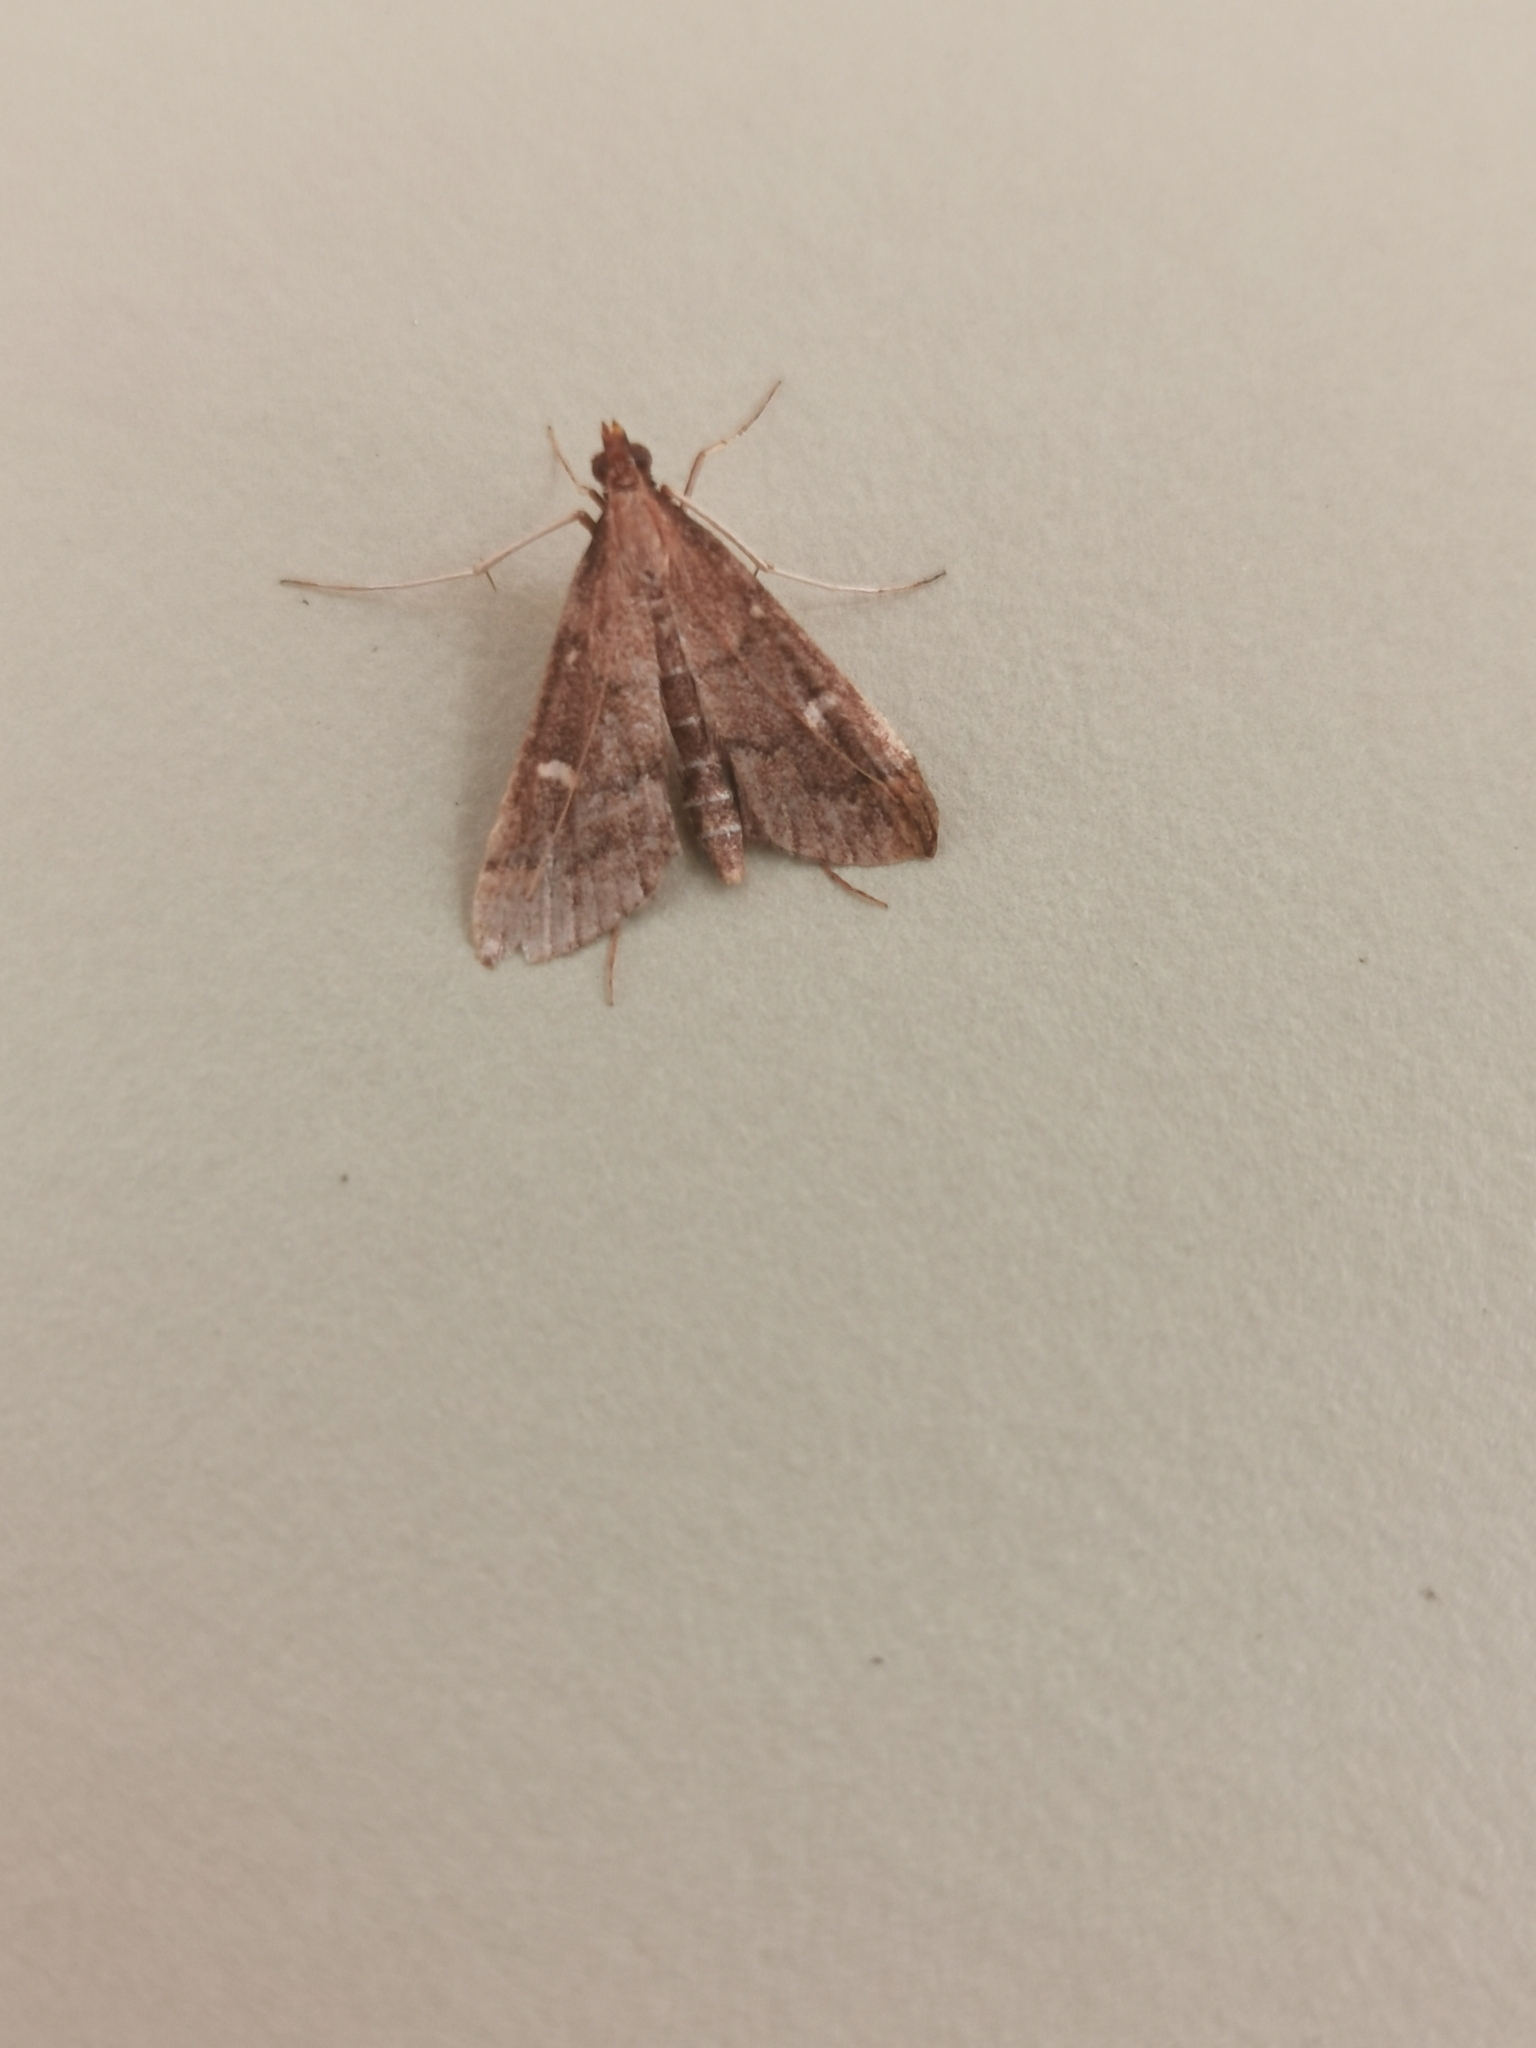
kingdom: Animalia
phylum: Arthropoda
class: Insecta
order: Lepidoptera
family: Crambidae
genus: Stenia
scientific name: Stenia Dolicharthria punctalis
